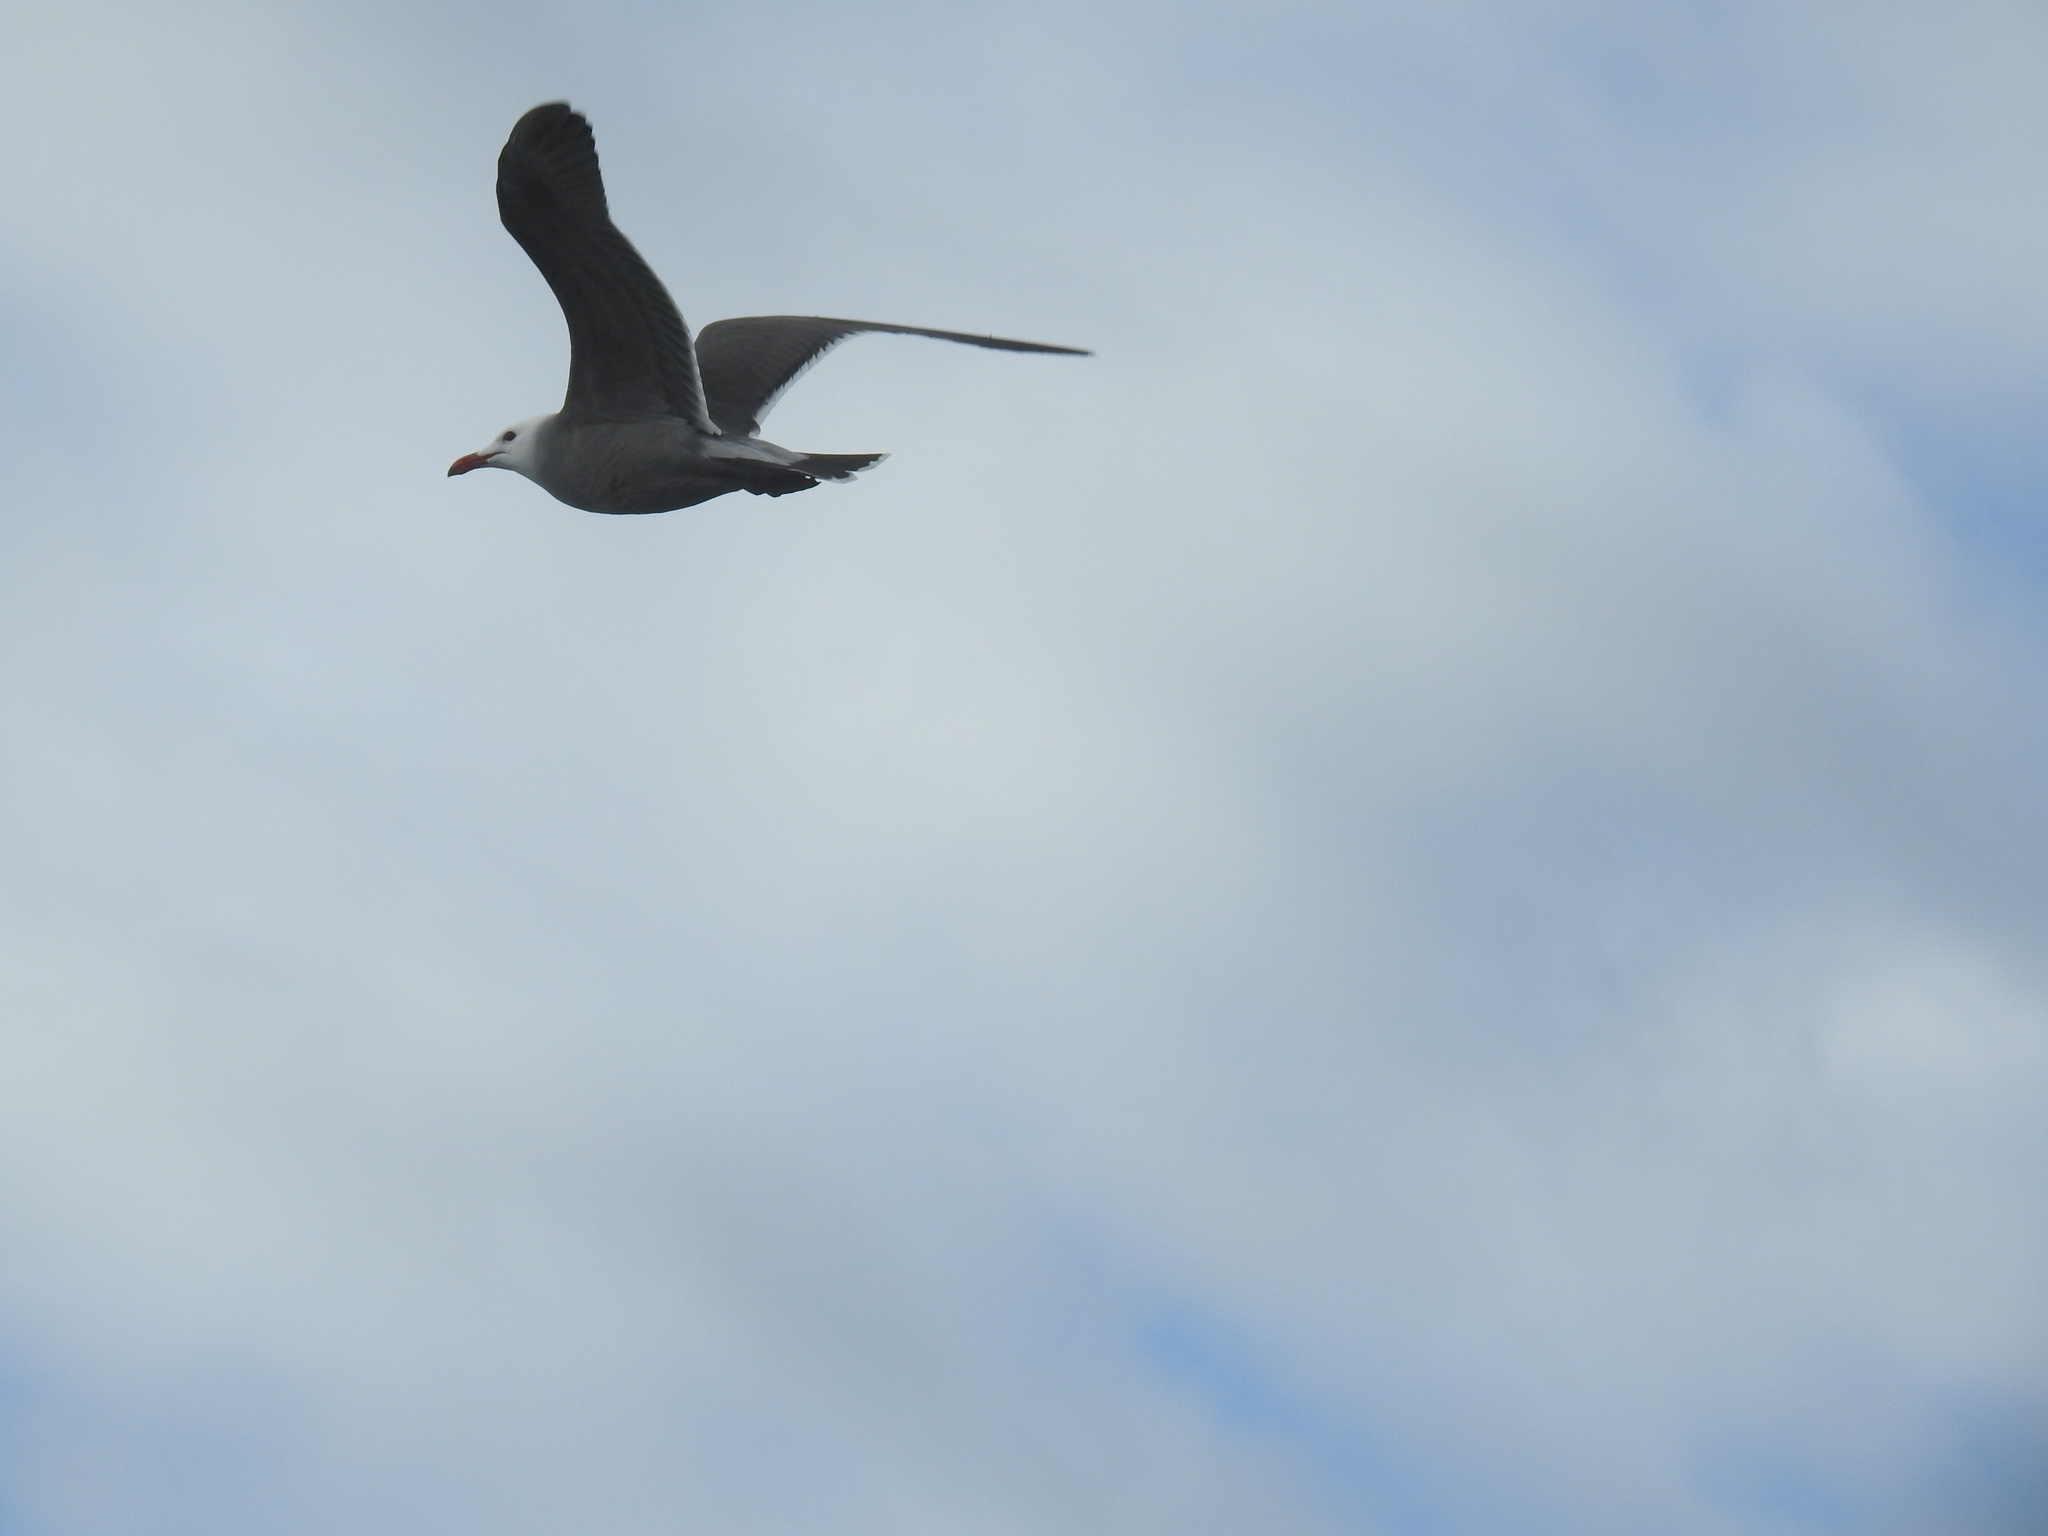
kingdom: Animalia
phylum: Chordata
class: Aves
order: Charadriiformes
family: Laridae
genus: Larus
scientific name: Larus heermanni
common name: Heermann's gull
